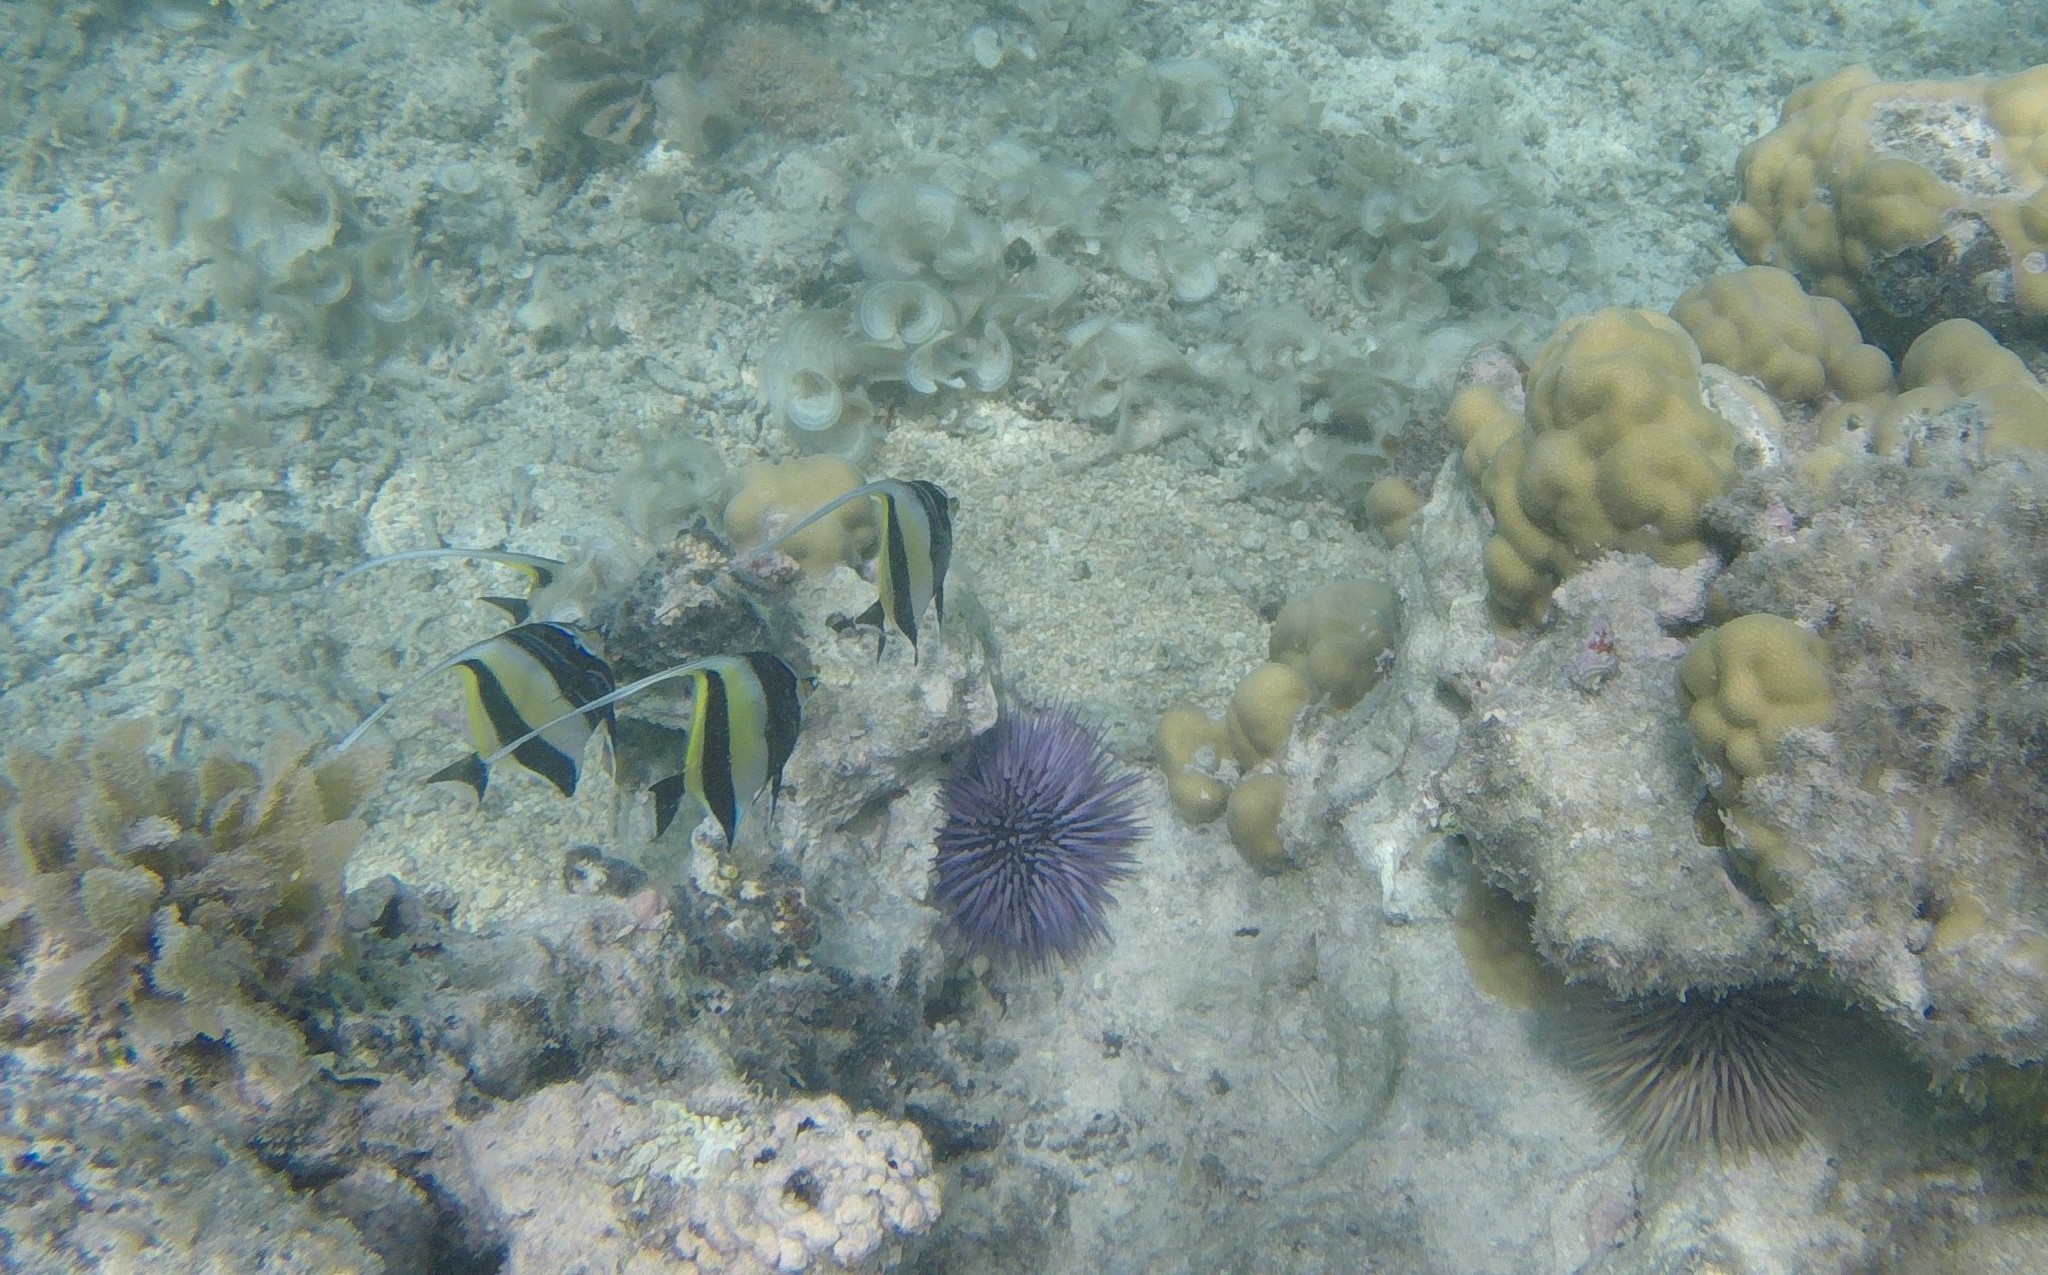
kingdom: Animalia
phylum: Chordata
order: Perciformes
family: Zanclidae
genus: Zanclus
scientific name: Zanclus cornutus
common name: Moorish idol
